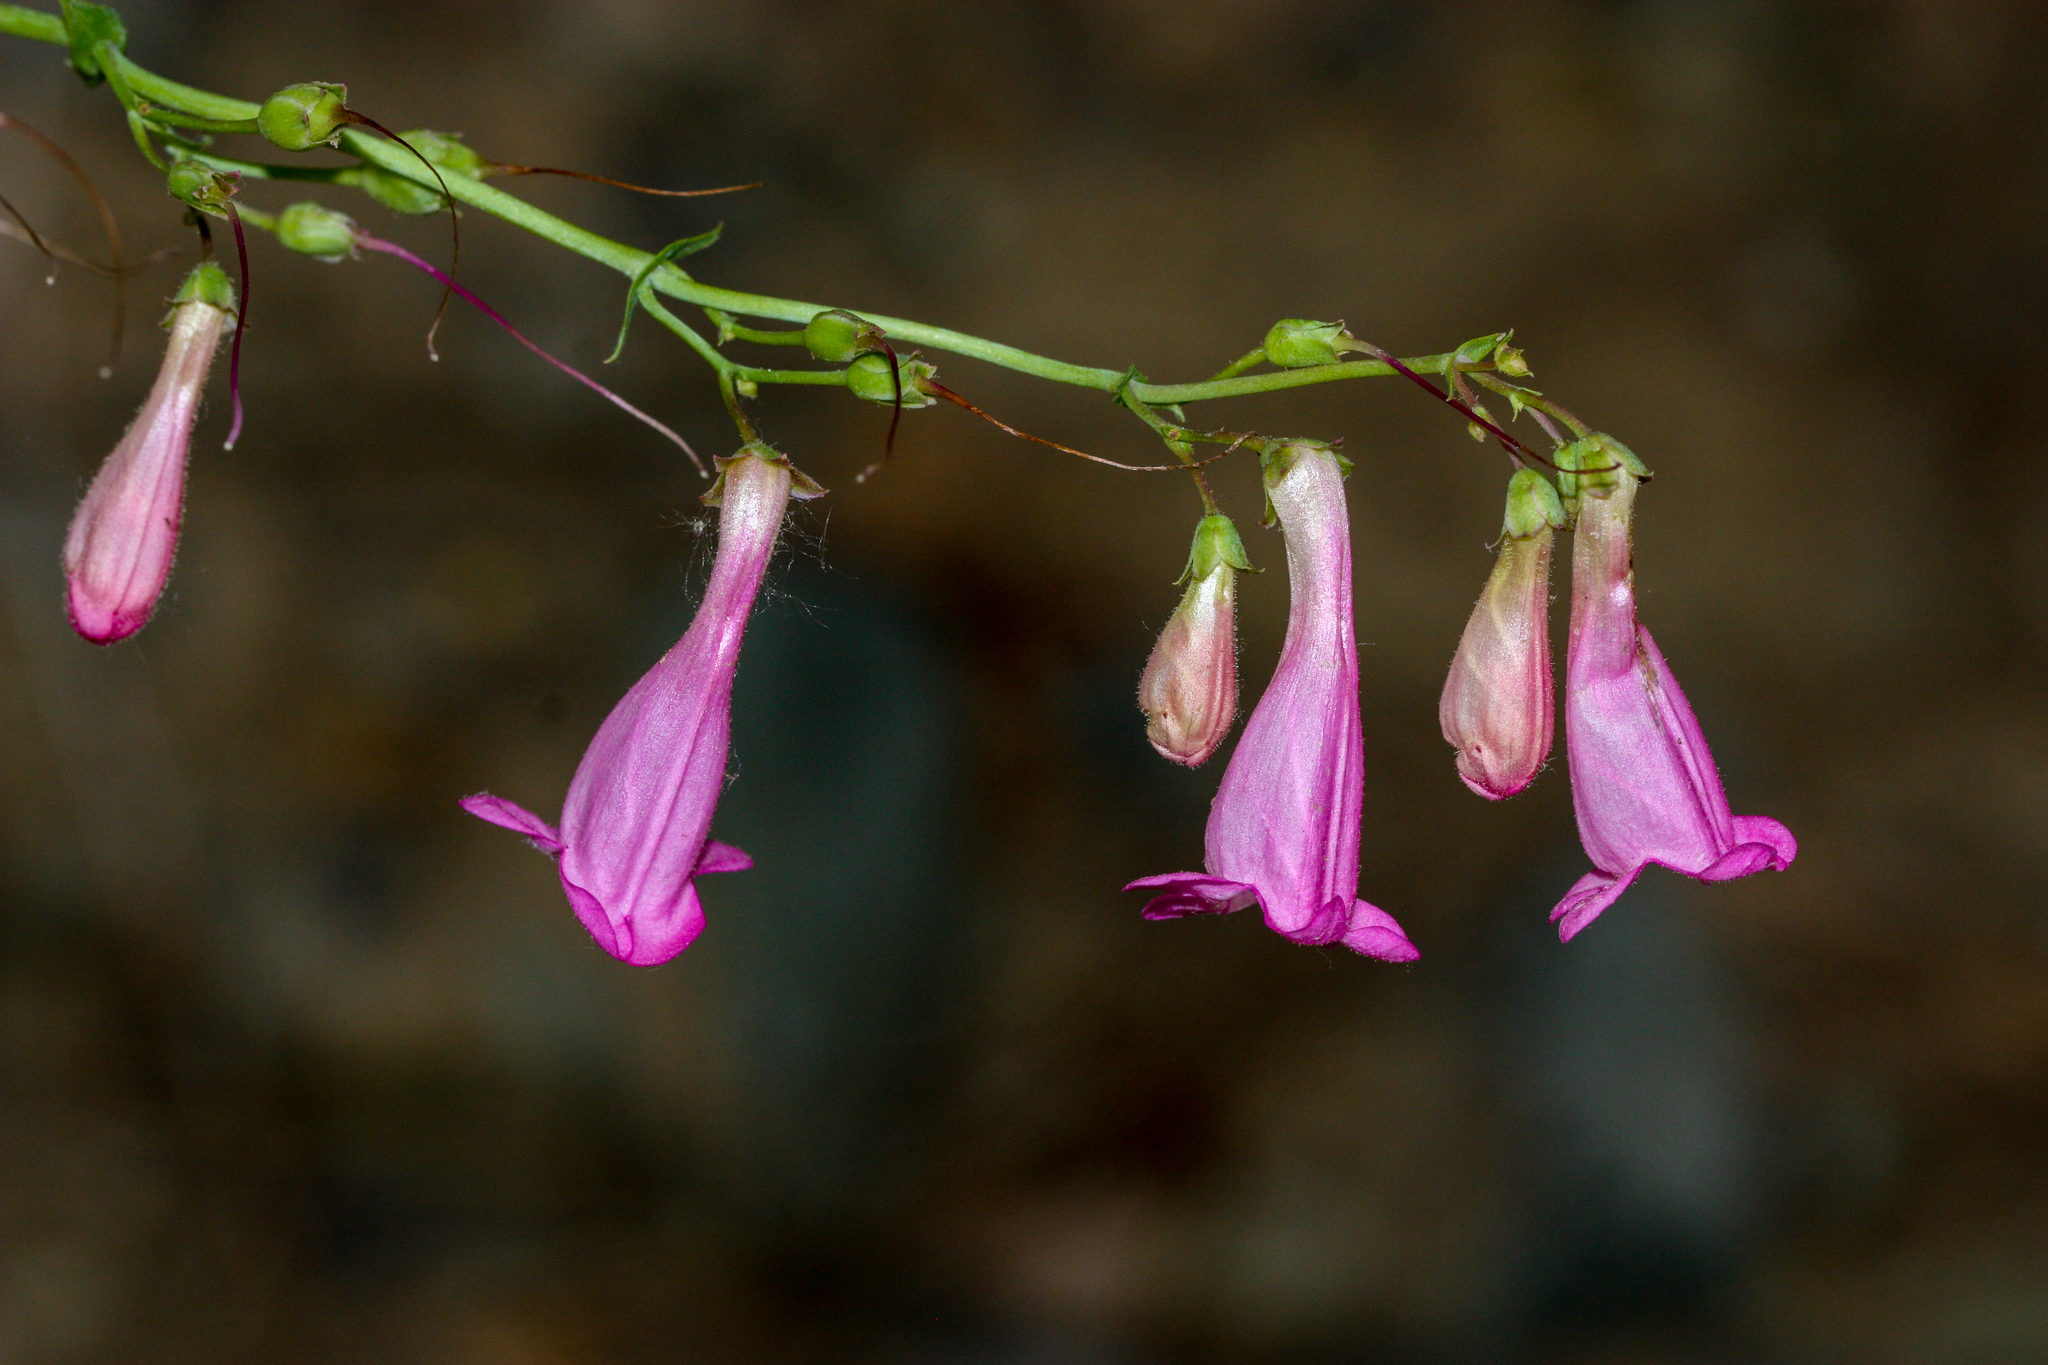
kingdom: Plantae
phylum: Tracheophyta
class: Magnoliopsida
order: Lamiales
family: Plantaginaceae
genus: Penstemon
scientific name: Penstemon pseudospectabilis
